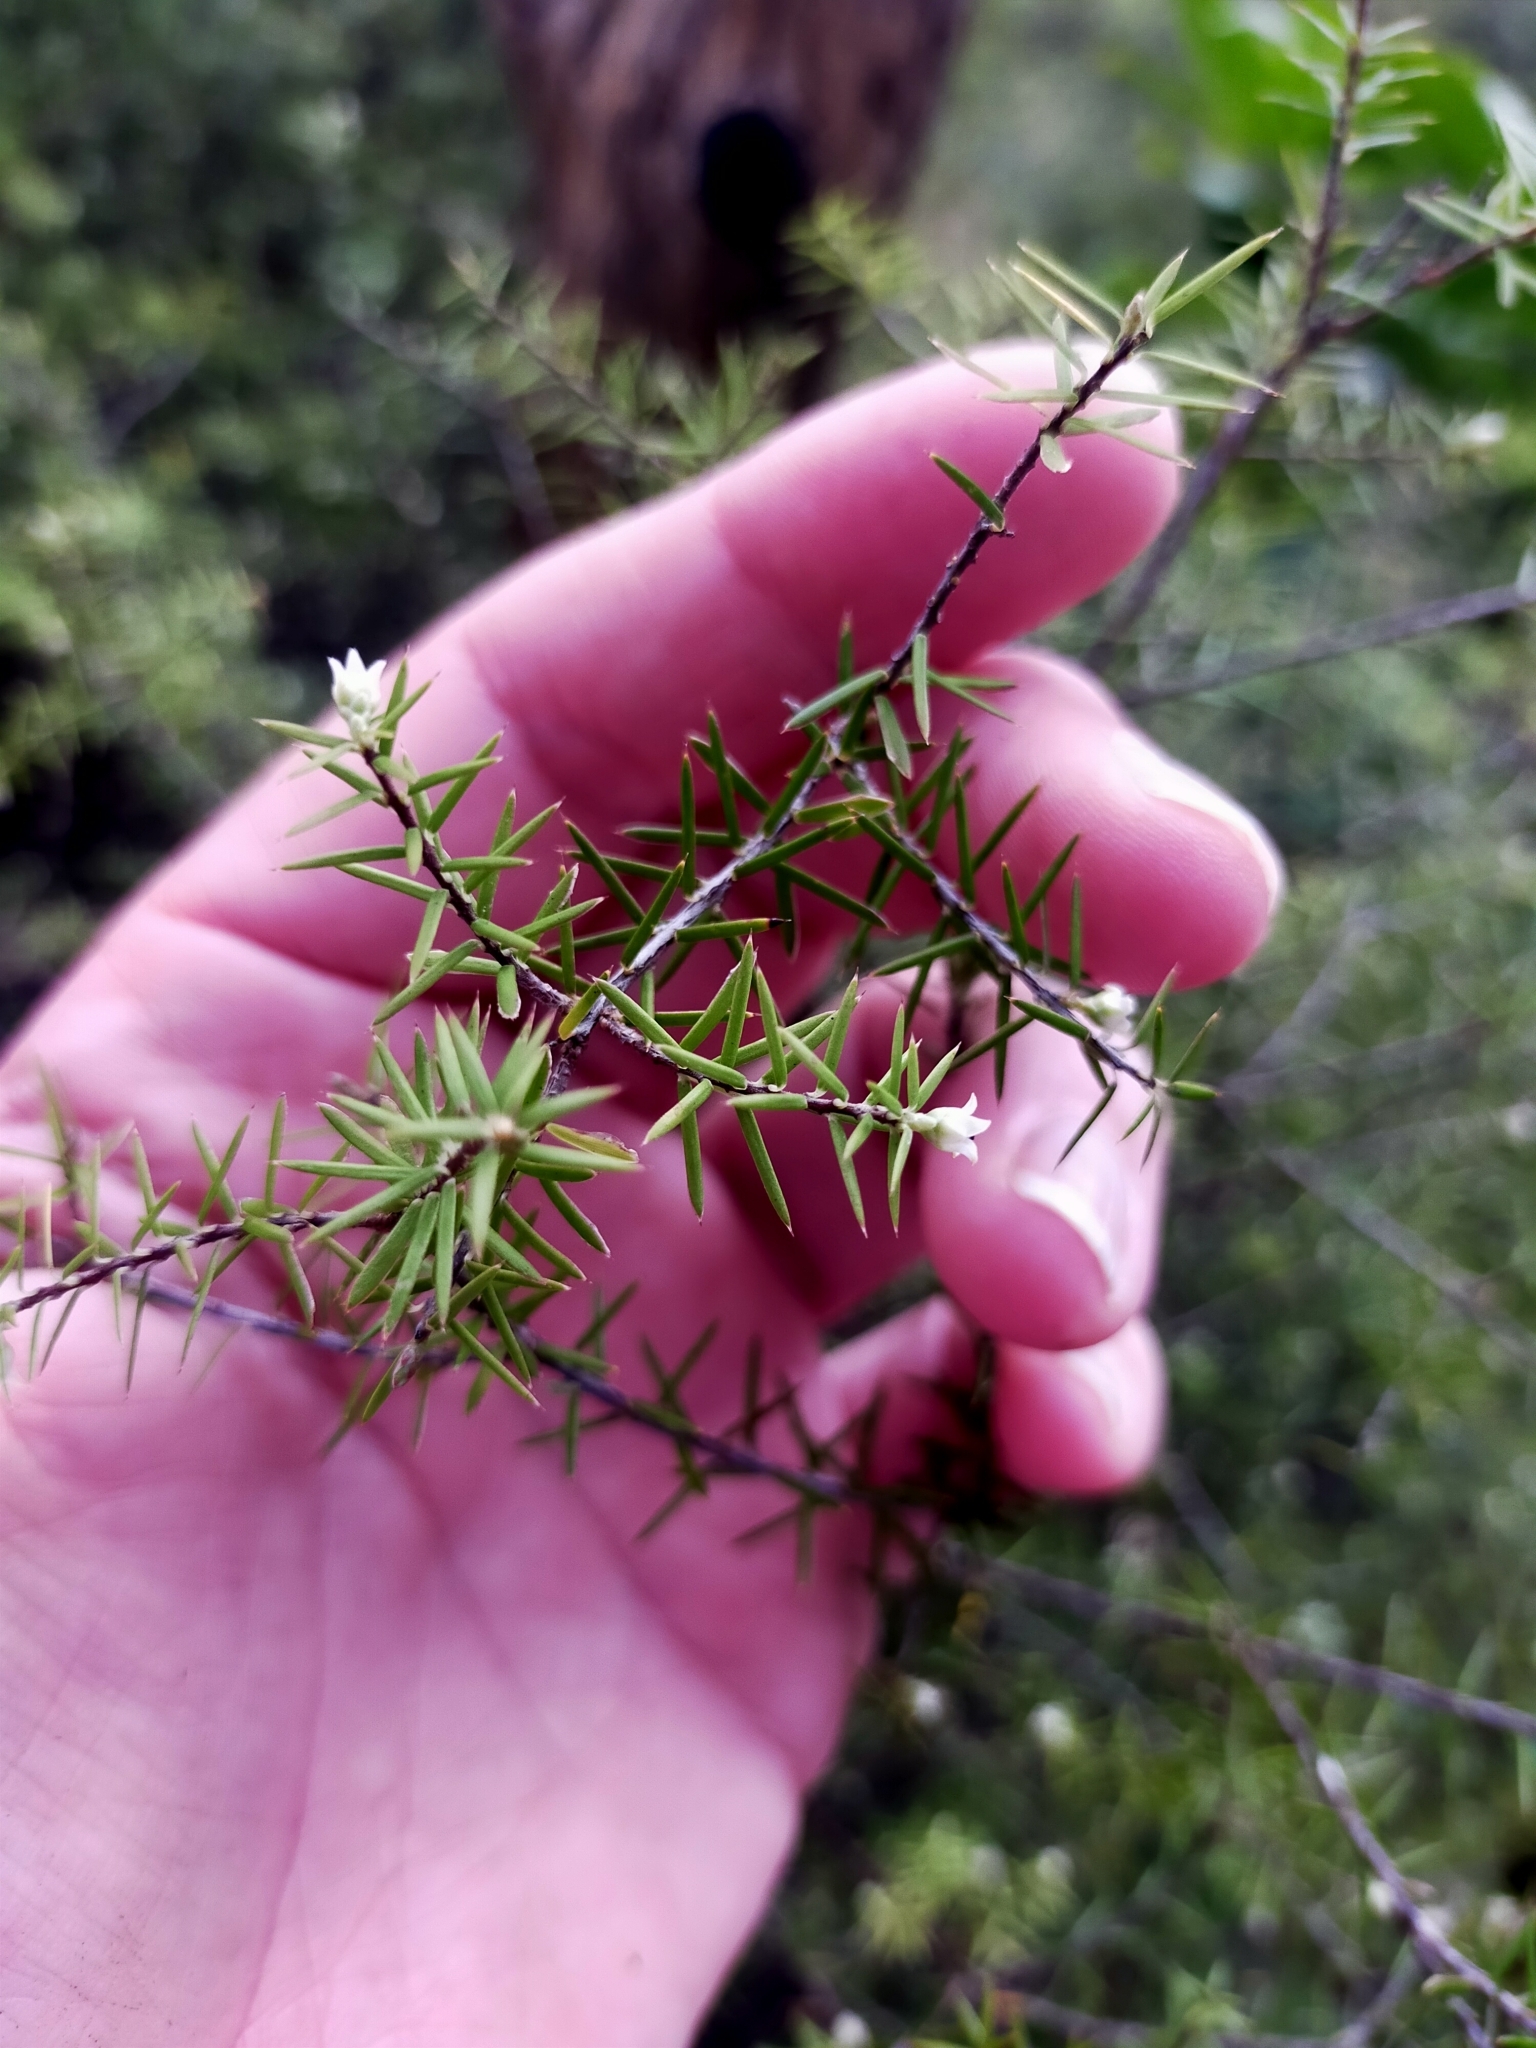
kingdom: Plantae
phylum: Tracheophyta
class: Magnoliopsida
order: Ericales
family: Ericaceae
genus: Leptecophylla
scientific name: Leptecophylla juniperina
